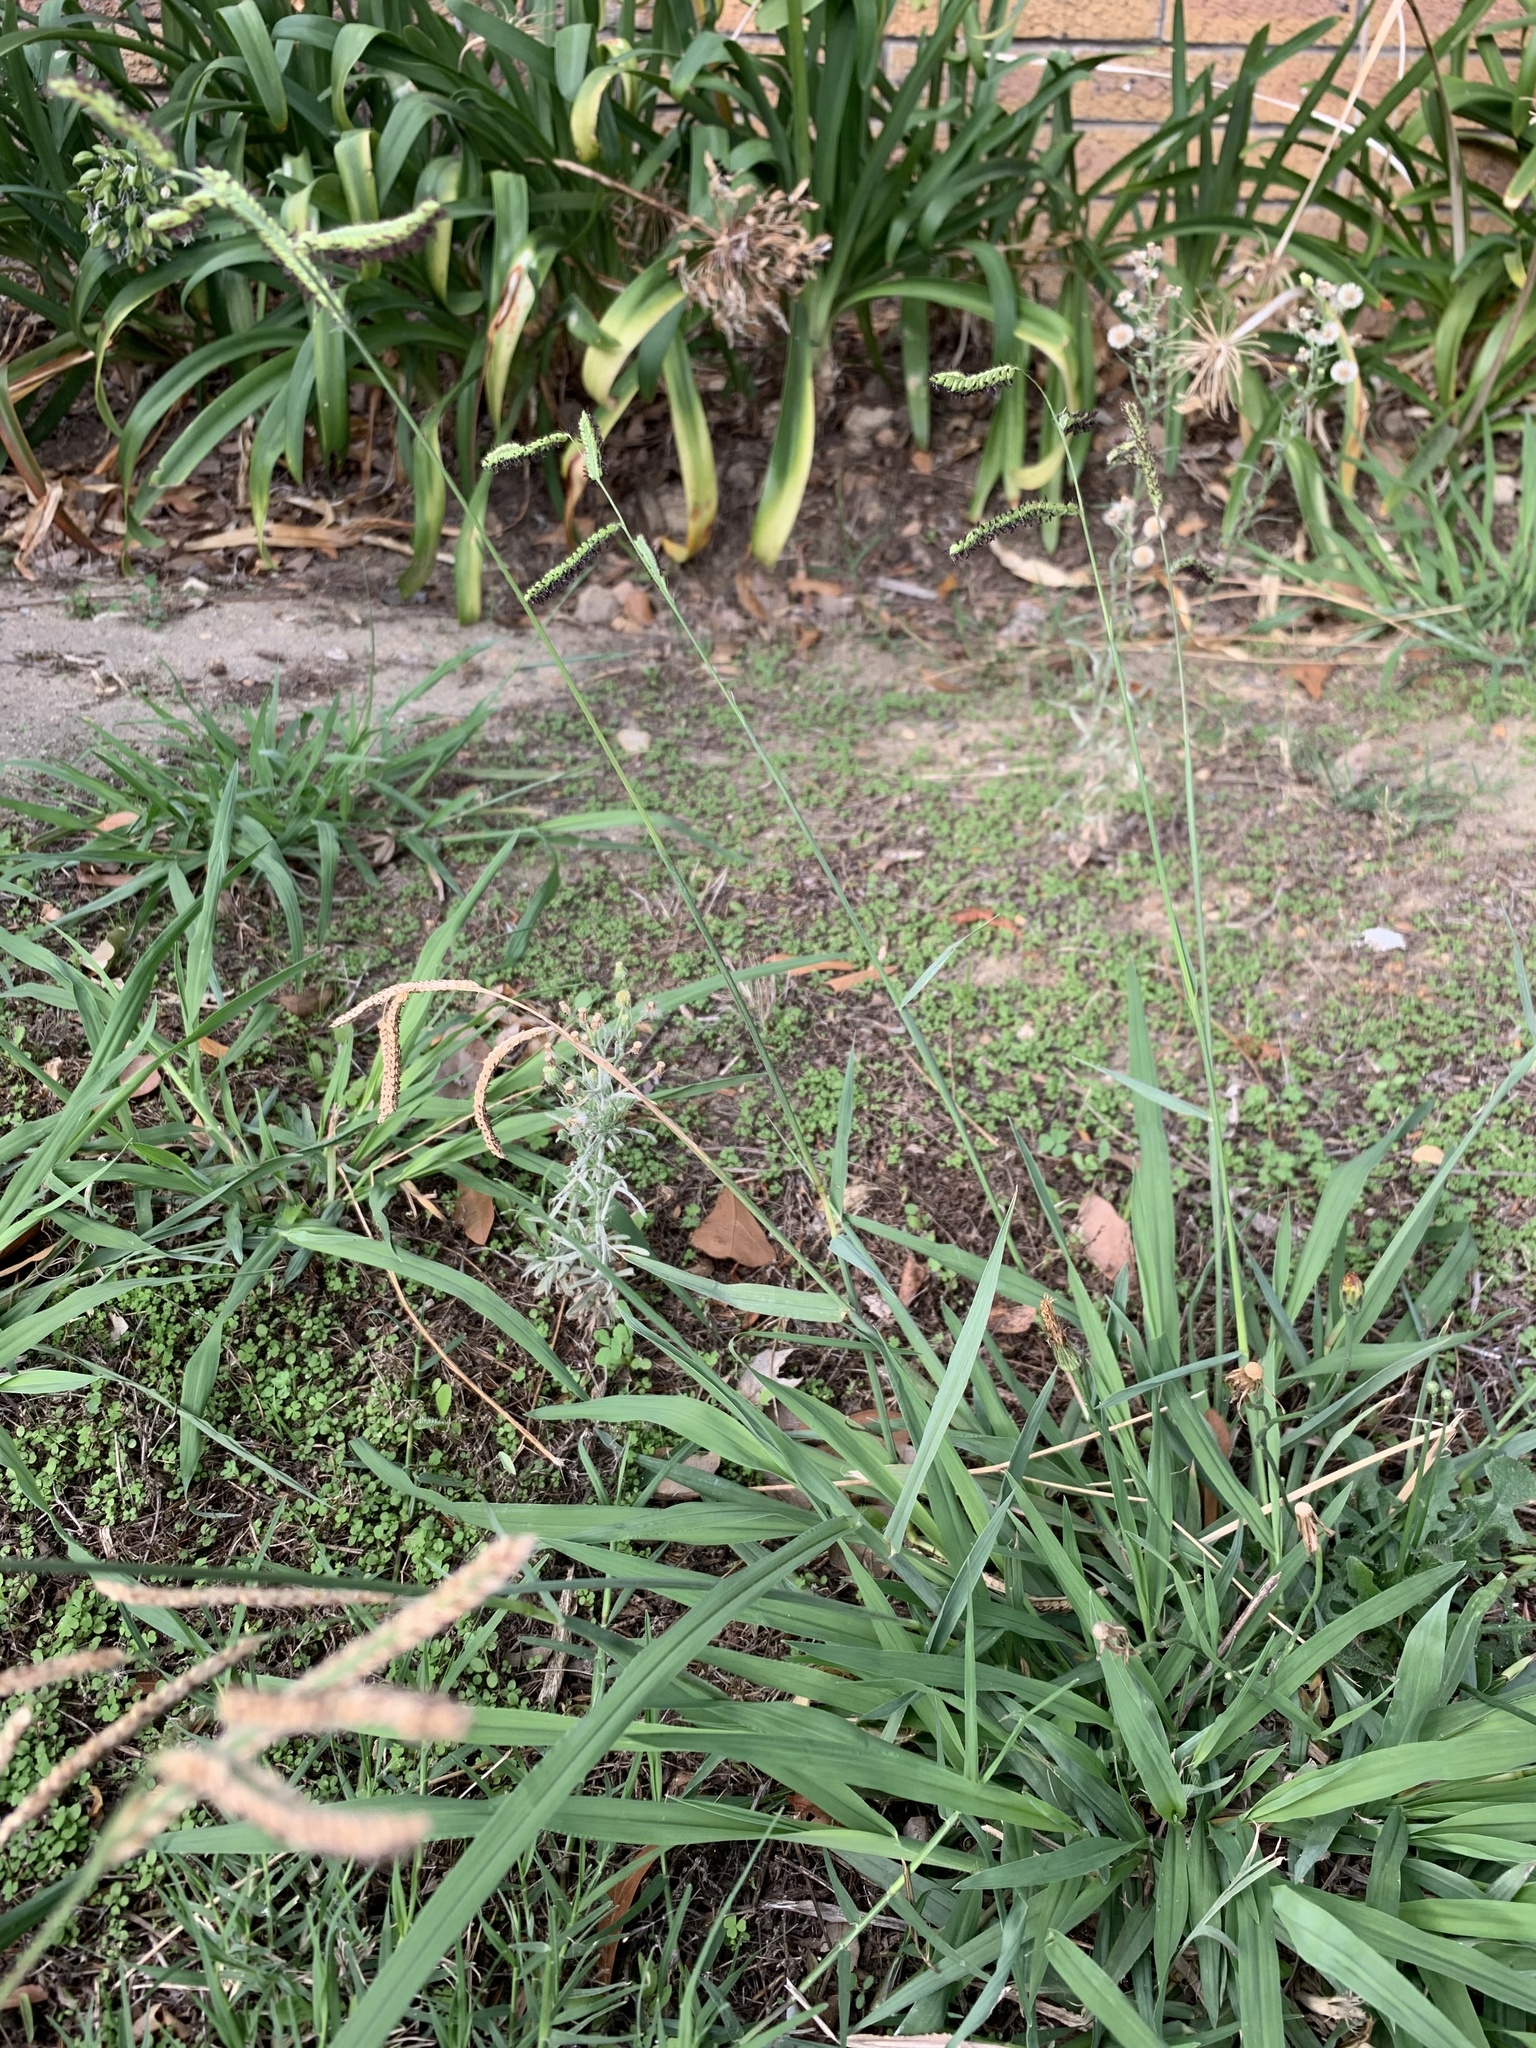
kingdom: Plantae
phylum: Tracheophyta
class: Liliopsida
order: Poales
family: Poaceae
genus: Paspalum
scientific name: Paspalum dilatatum
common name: Dallisgrass
